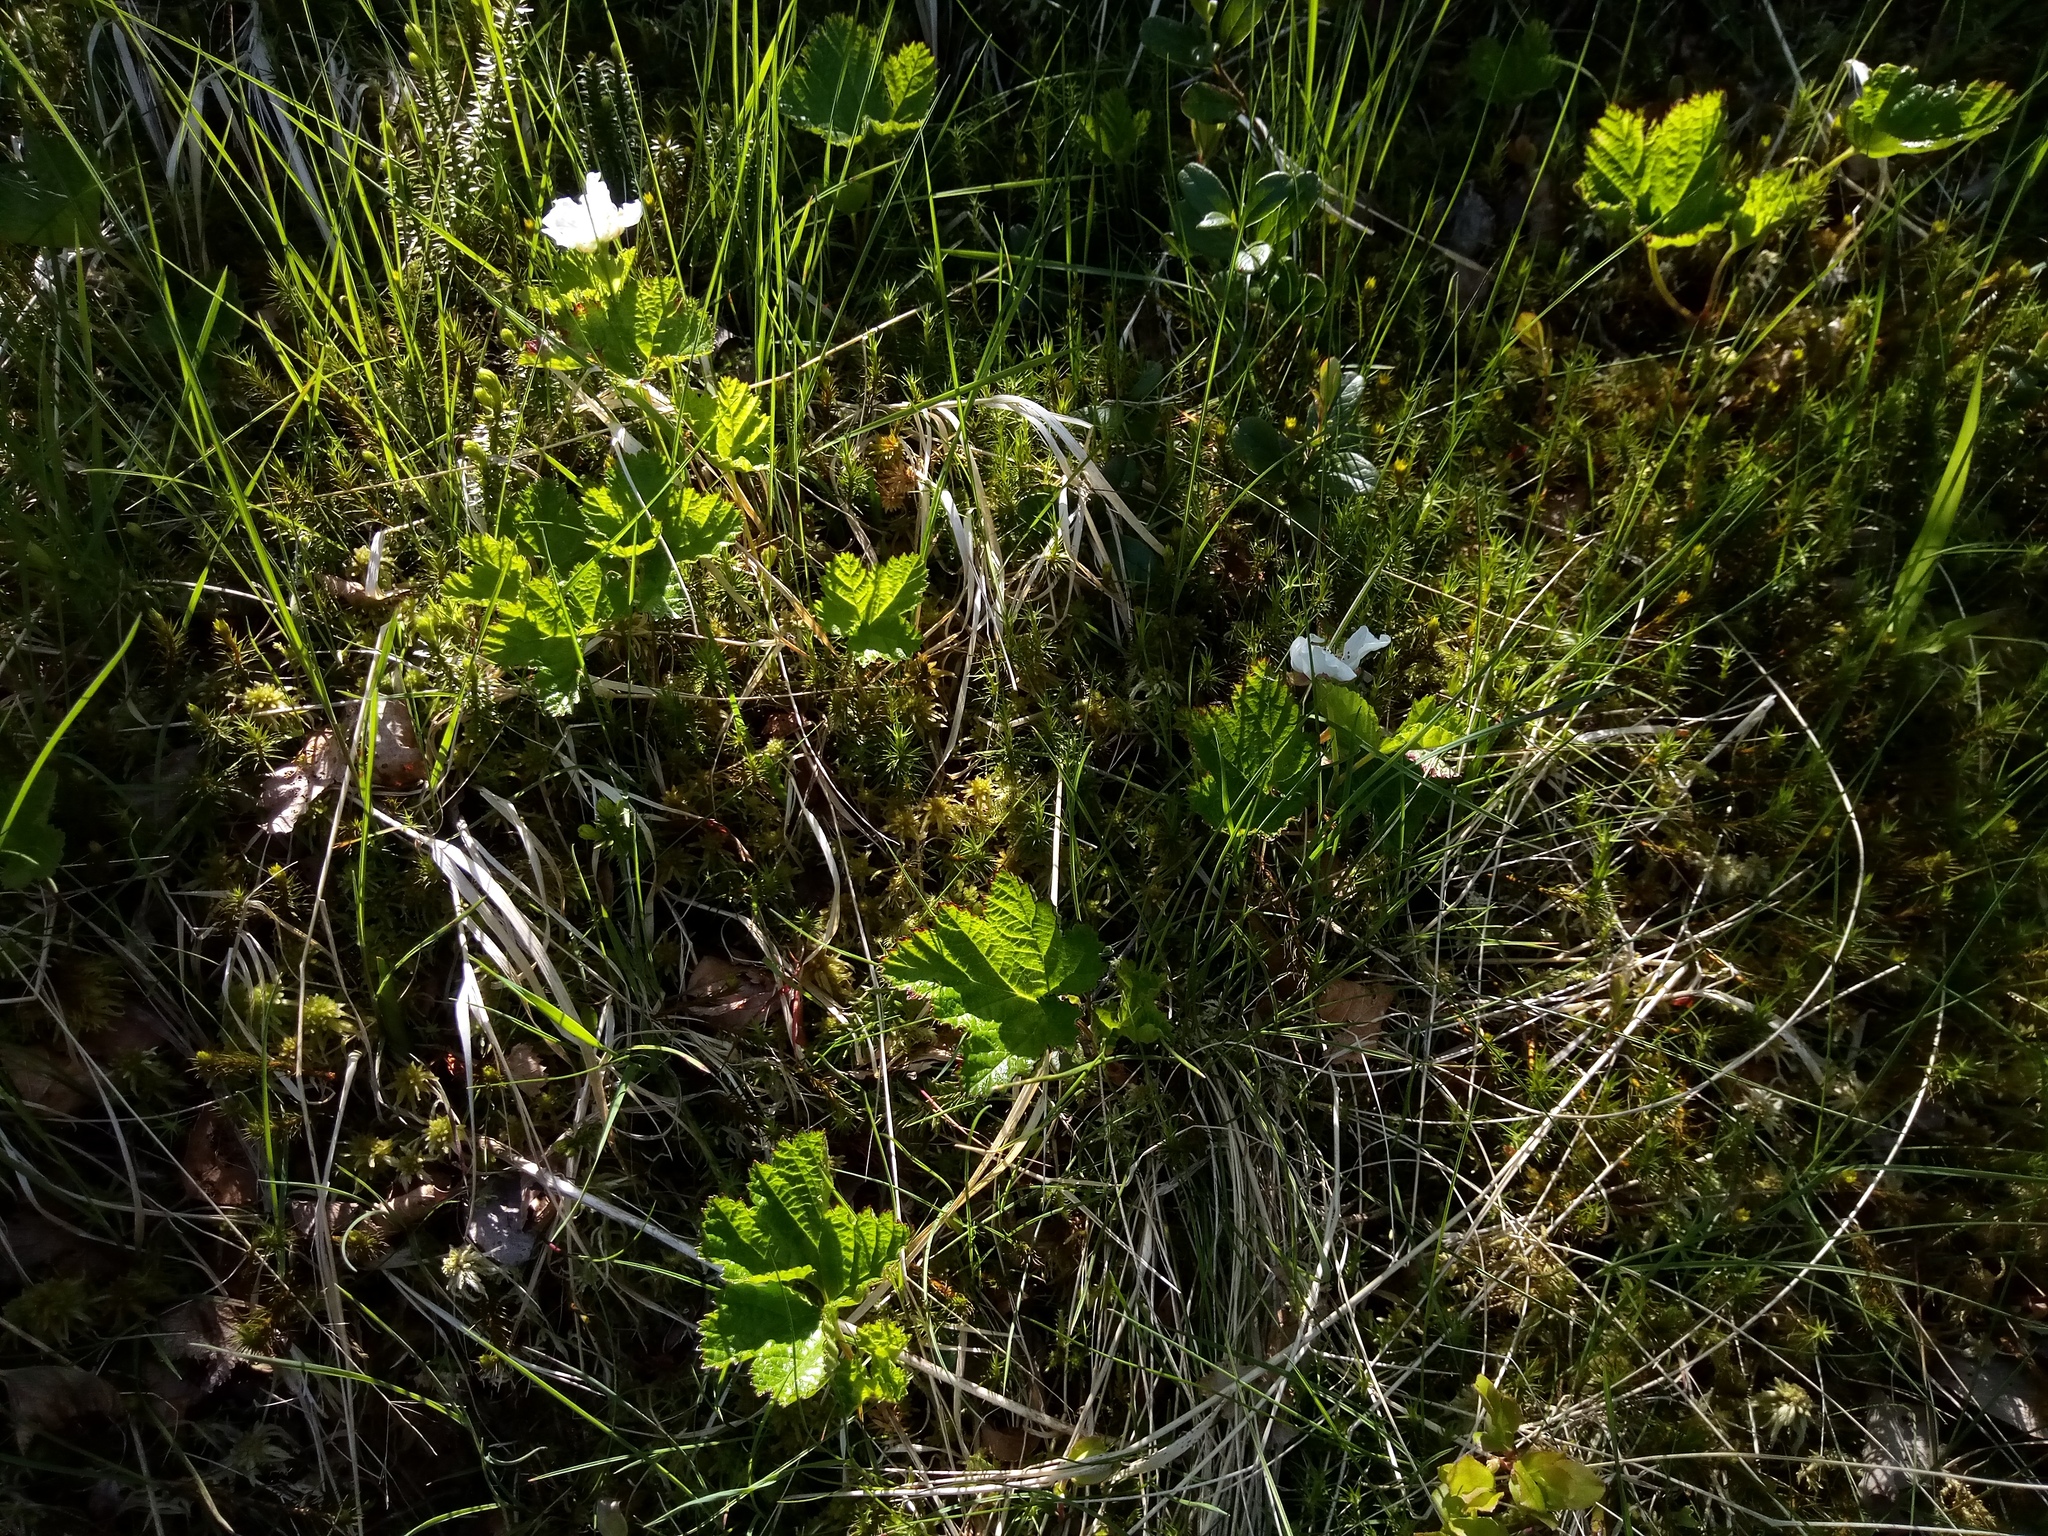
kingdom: Plantae
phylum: Tracheophyta
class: Magnoliopsida
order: Rosales
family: Rosaceae
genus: Rubus
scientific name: Rubus chamaemorus
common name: Cloudberry
